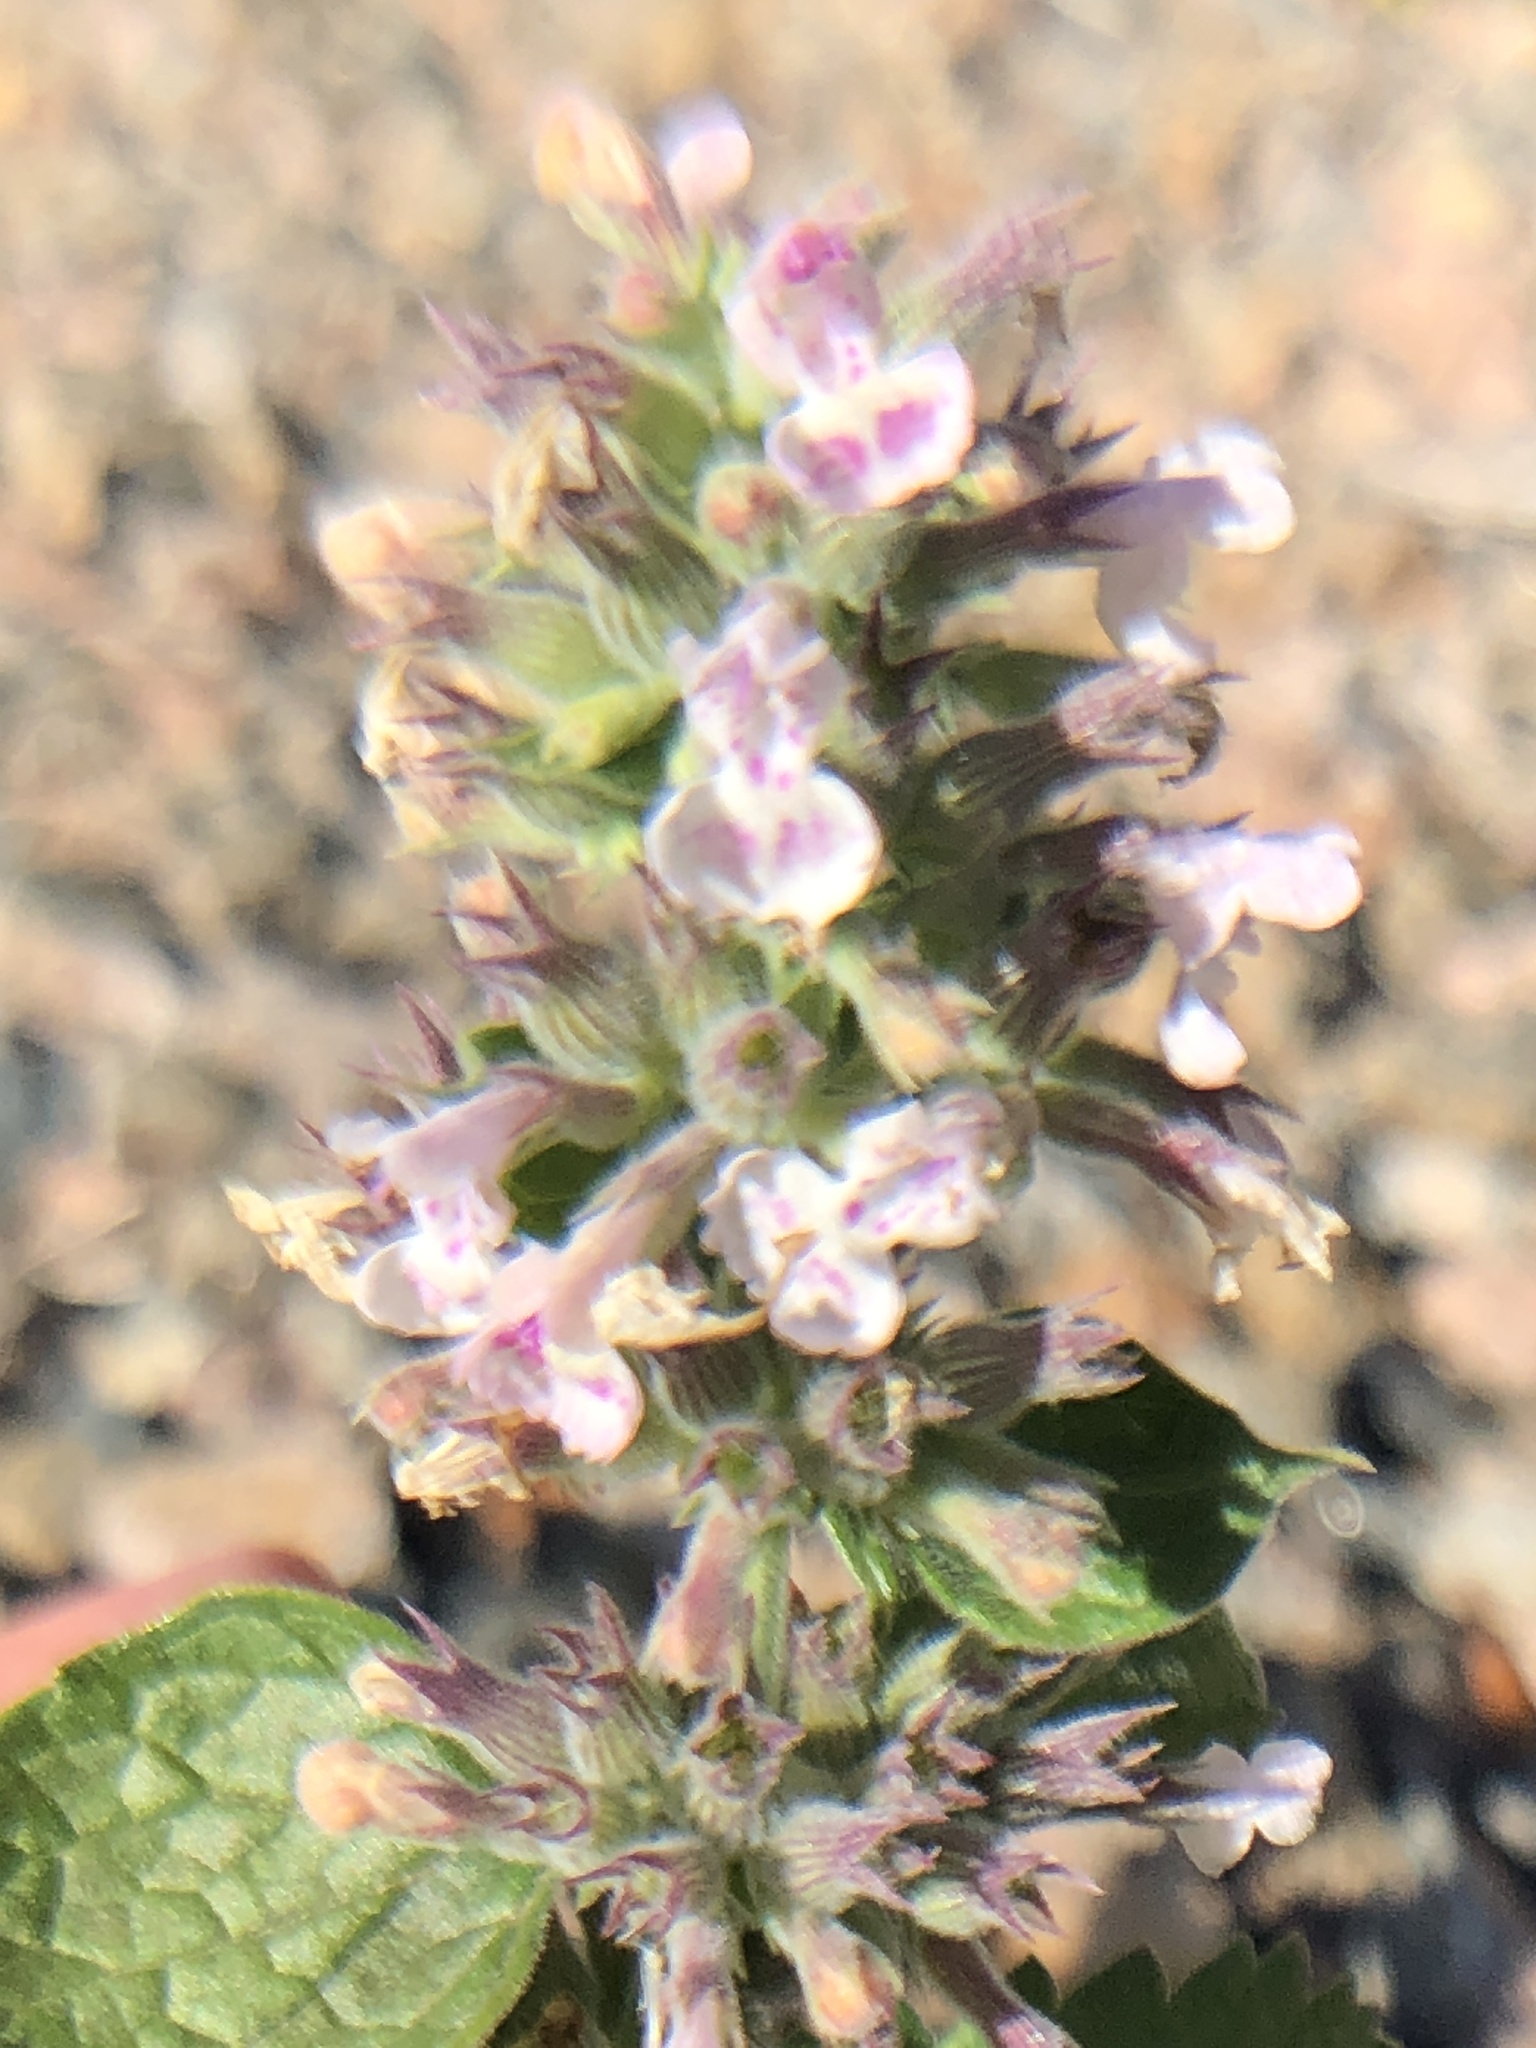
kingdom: Plantae
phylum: Tracheophyta
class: Magnoliopsida
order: Lamiales
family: Lamiaceae
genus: Nepeta
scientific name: Nepeta cataria
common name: Catnip
